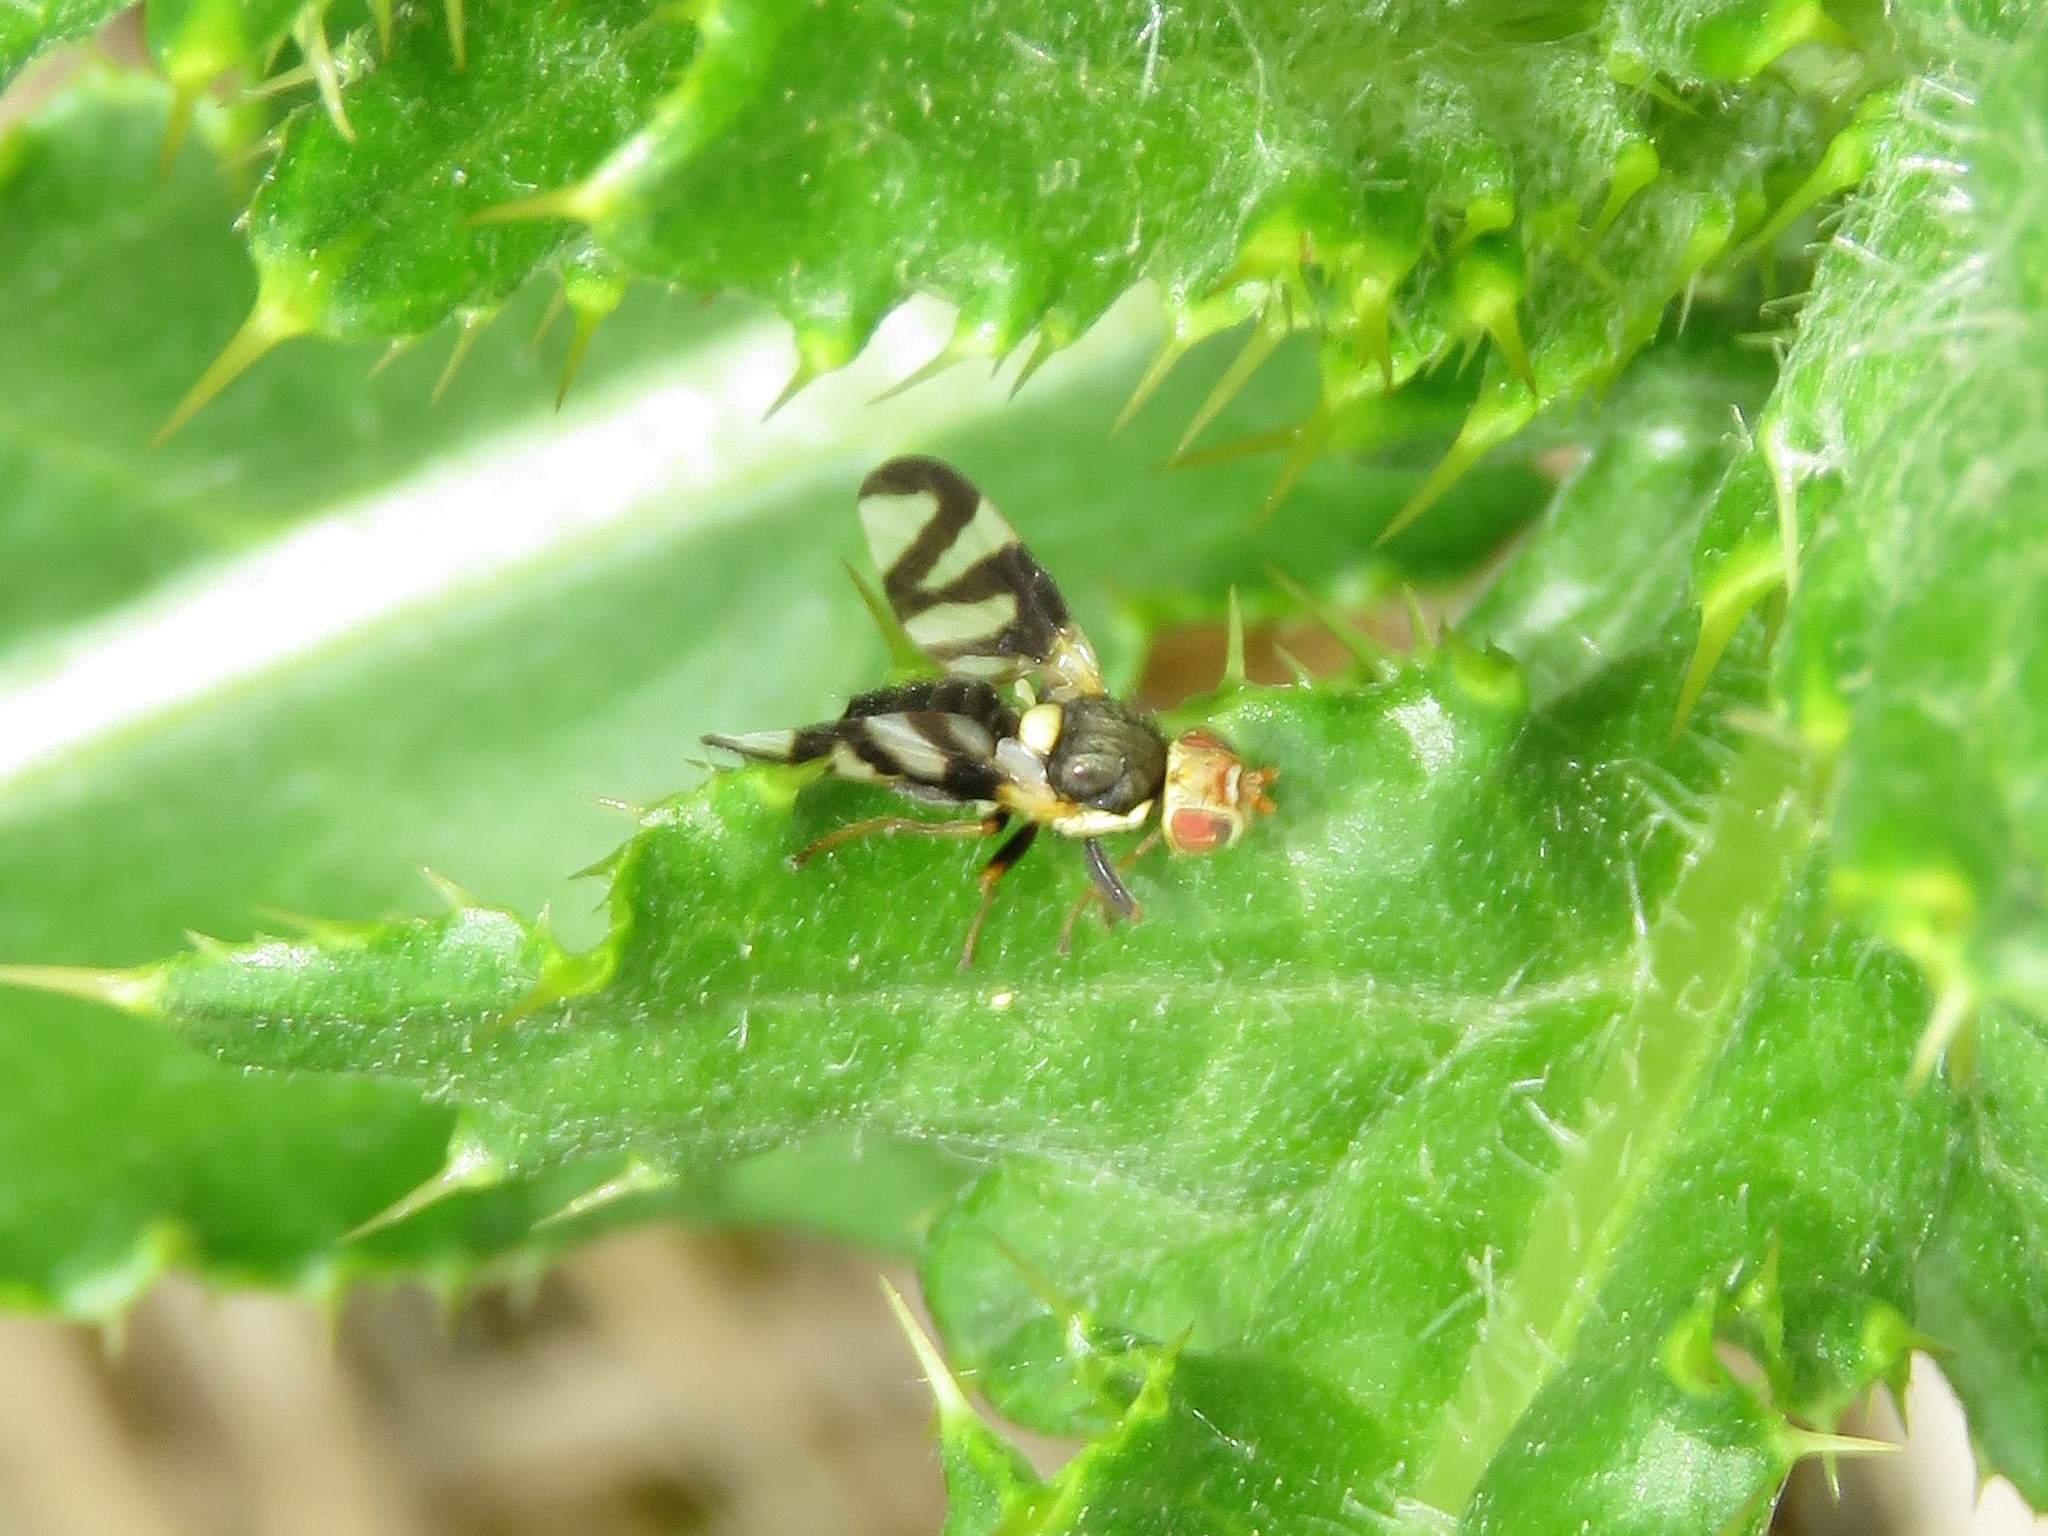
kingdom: Animalia
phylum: Arthropoda
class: Insecta
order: Diptera
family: Tephritidae
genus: Urophora
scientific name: Urophora cardui
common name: Fruit fly
